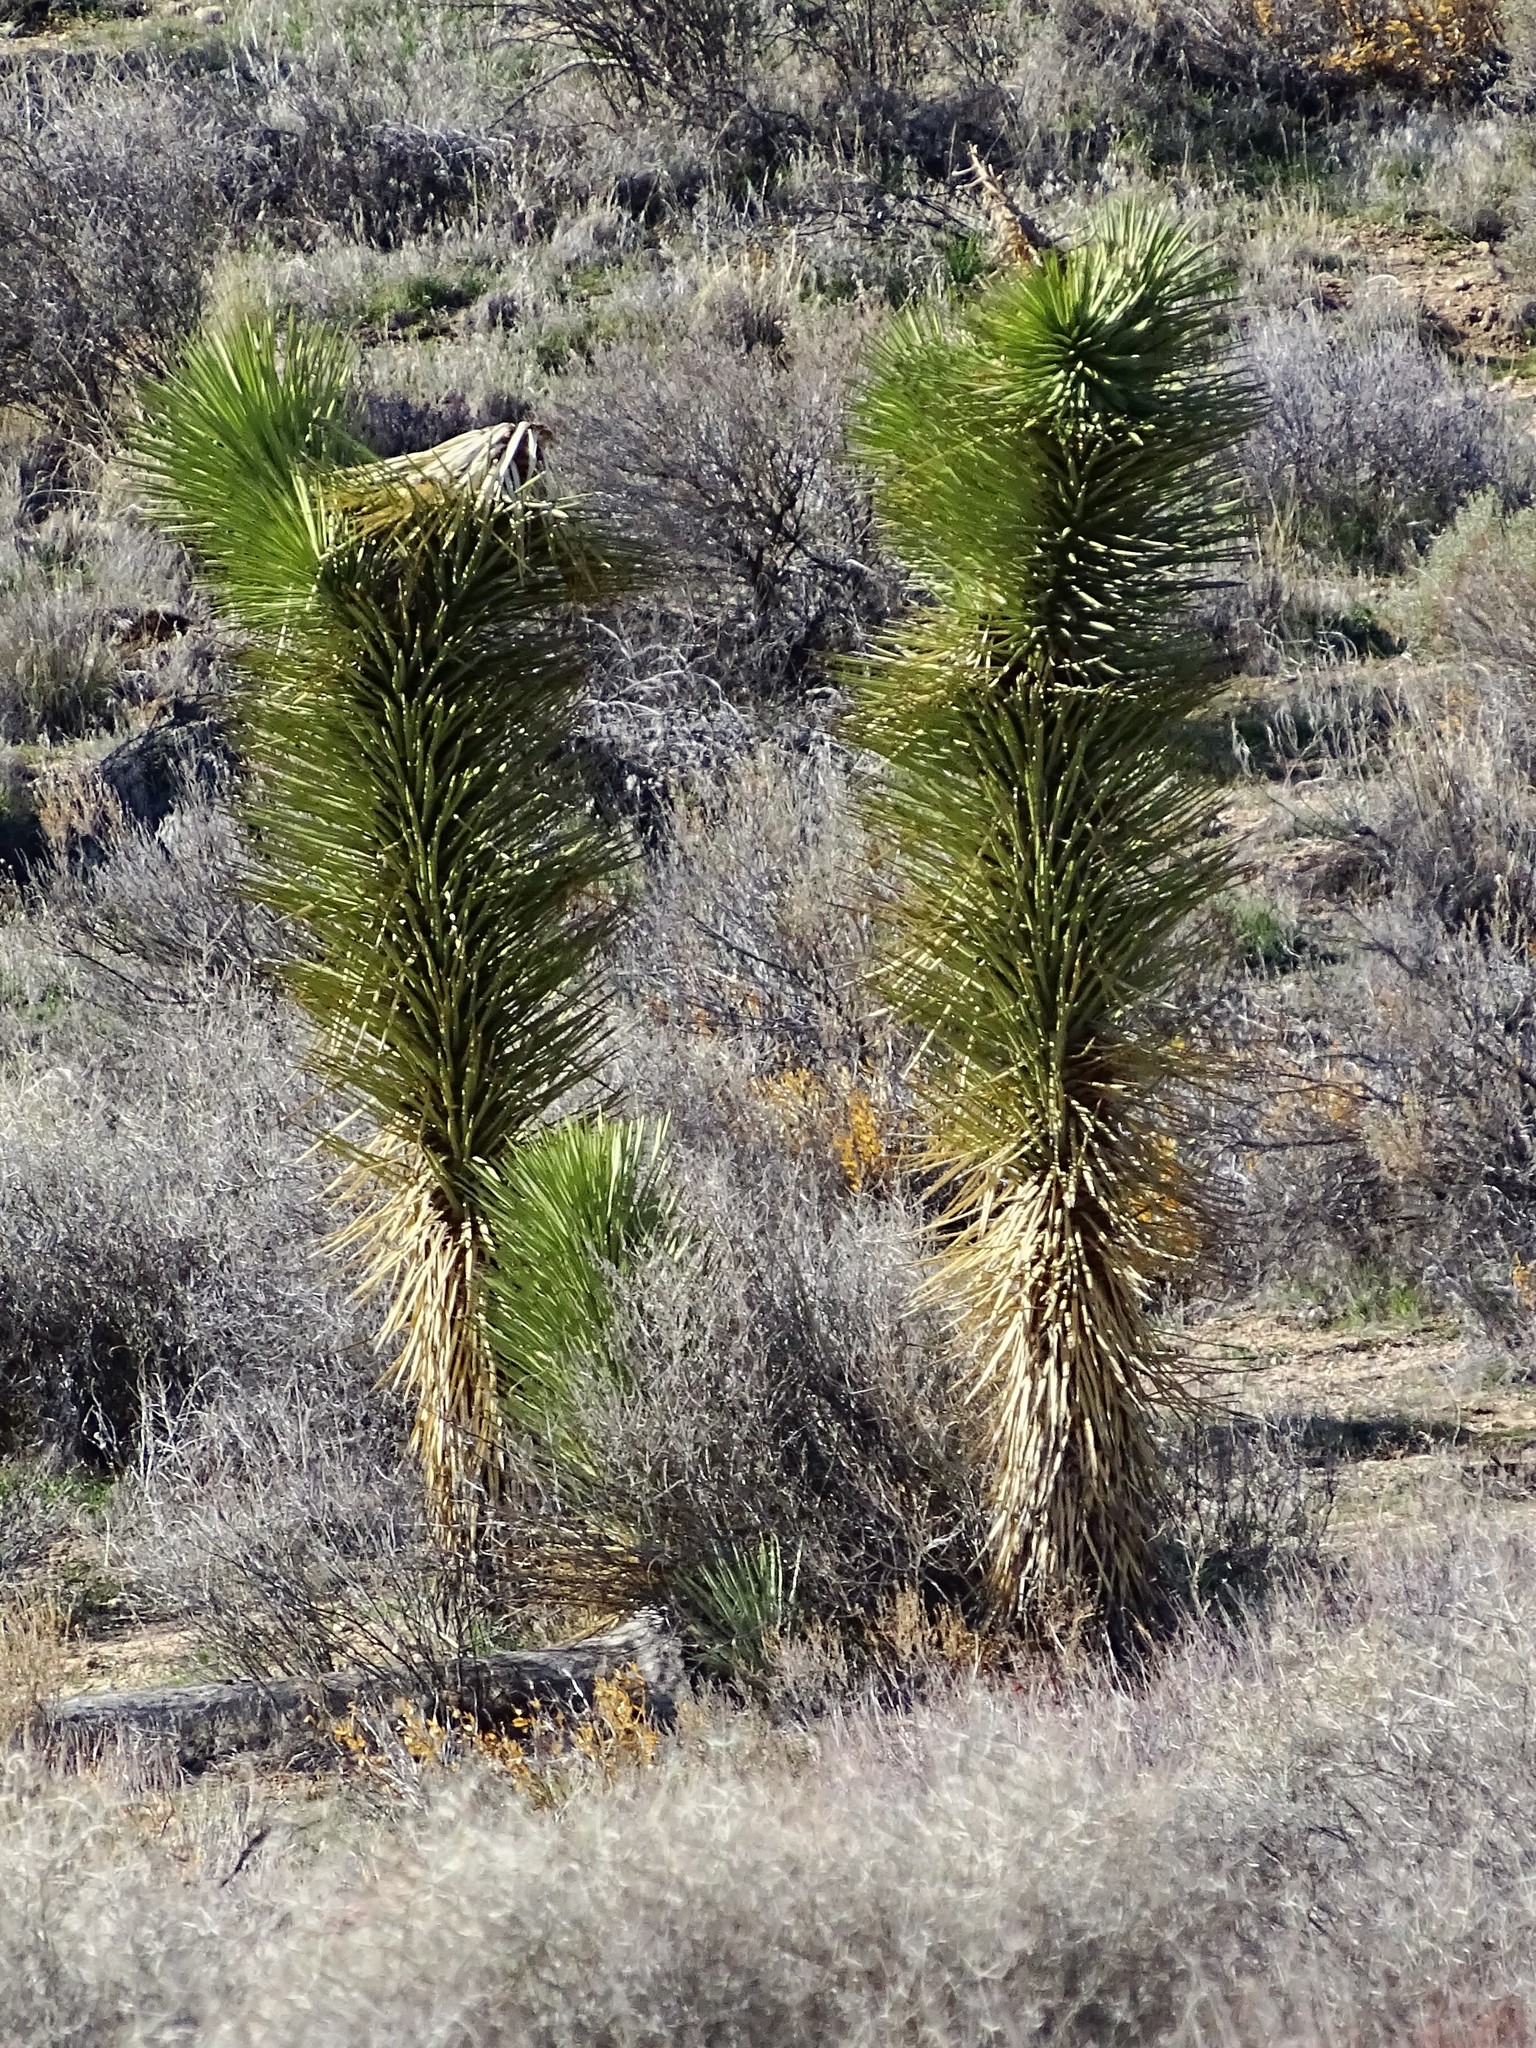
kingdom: Plantae
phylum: Tracheophyta
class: Liliopsida
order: Asparagales
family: Asparagaceae
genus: Yucca
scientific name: Yucca brevifolia
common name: Joshua tree
